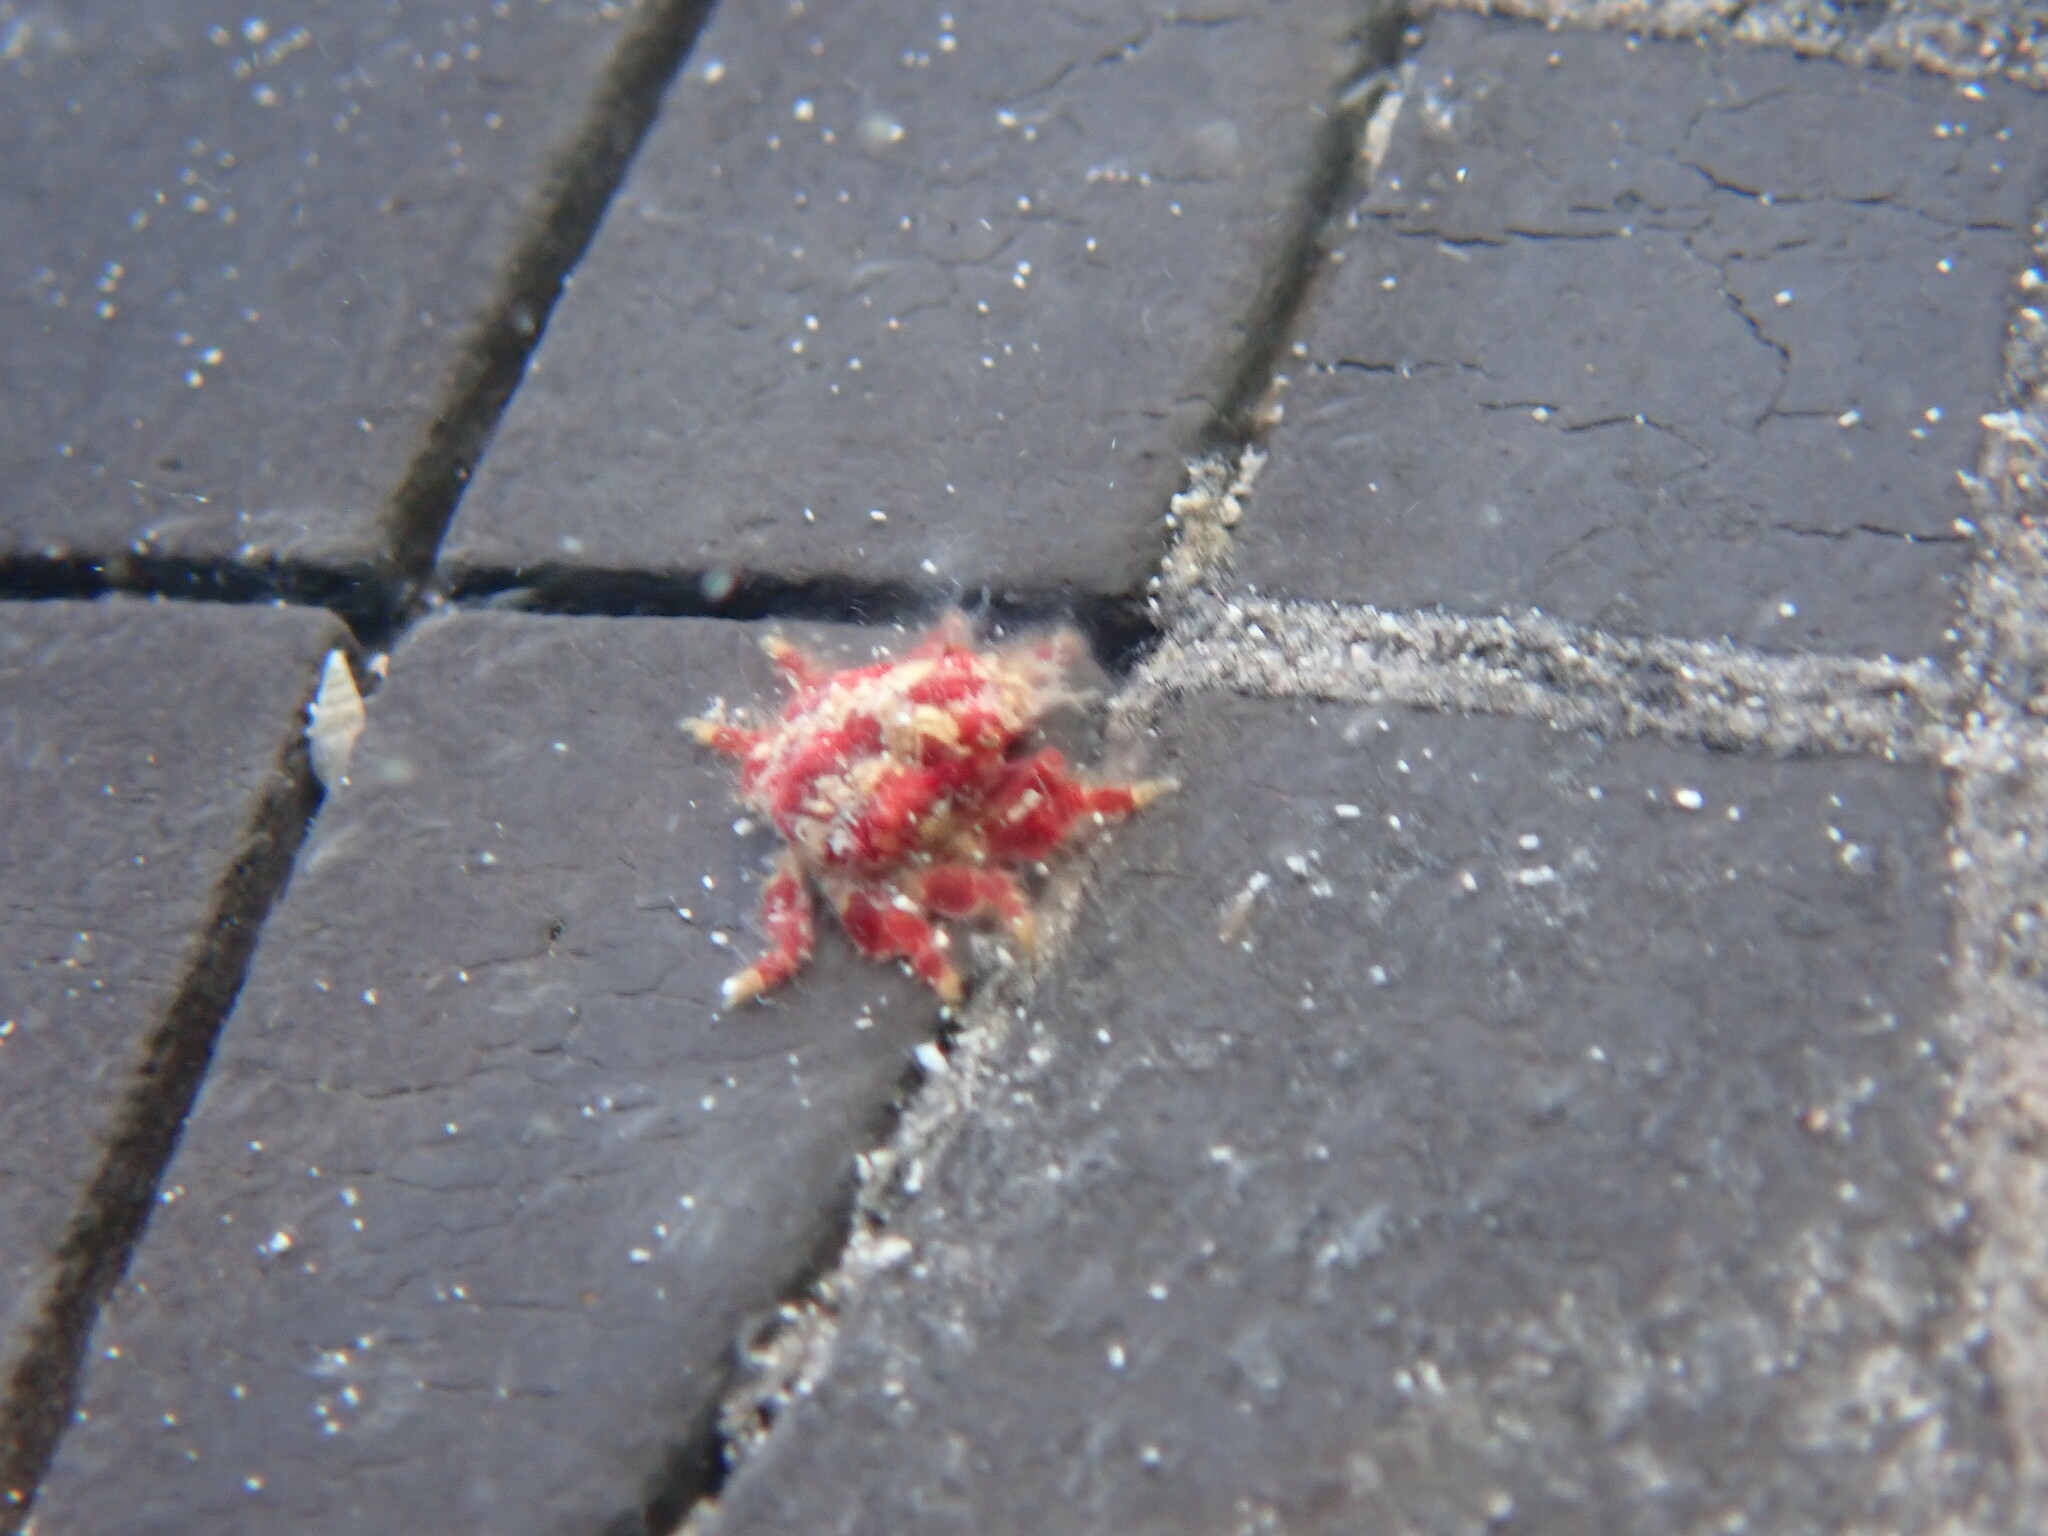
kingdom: Animalia
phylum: Arthropoda
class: Malacostraca
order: Decapoda
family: Mithracidae
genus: Thoe
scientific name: Thoe puella
